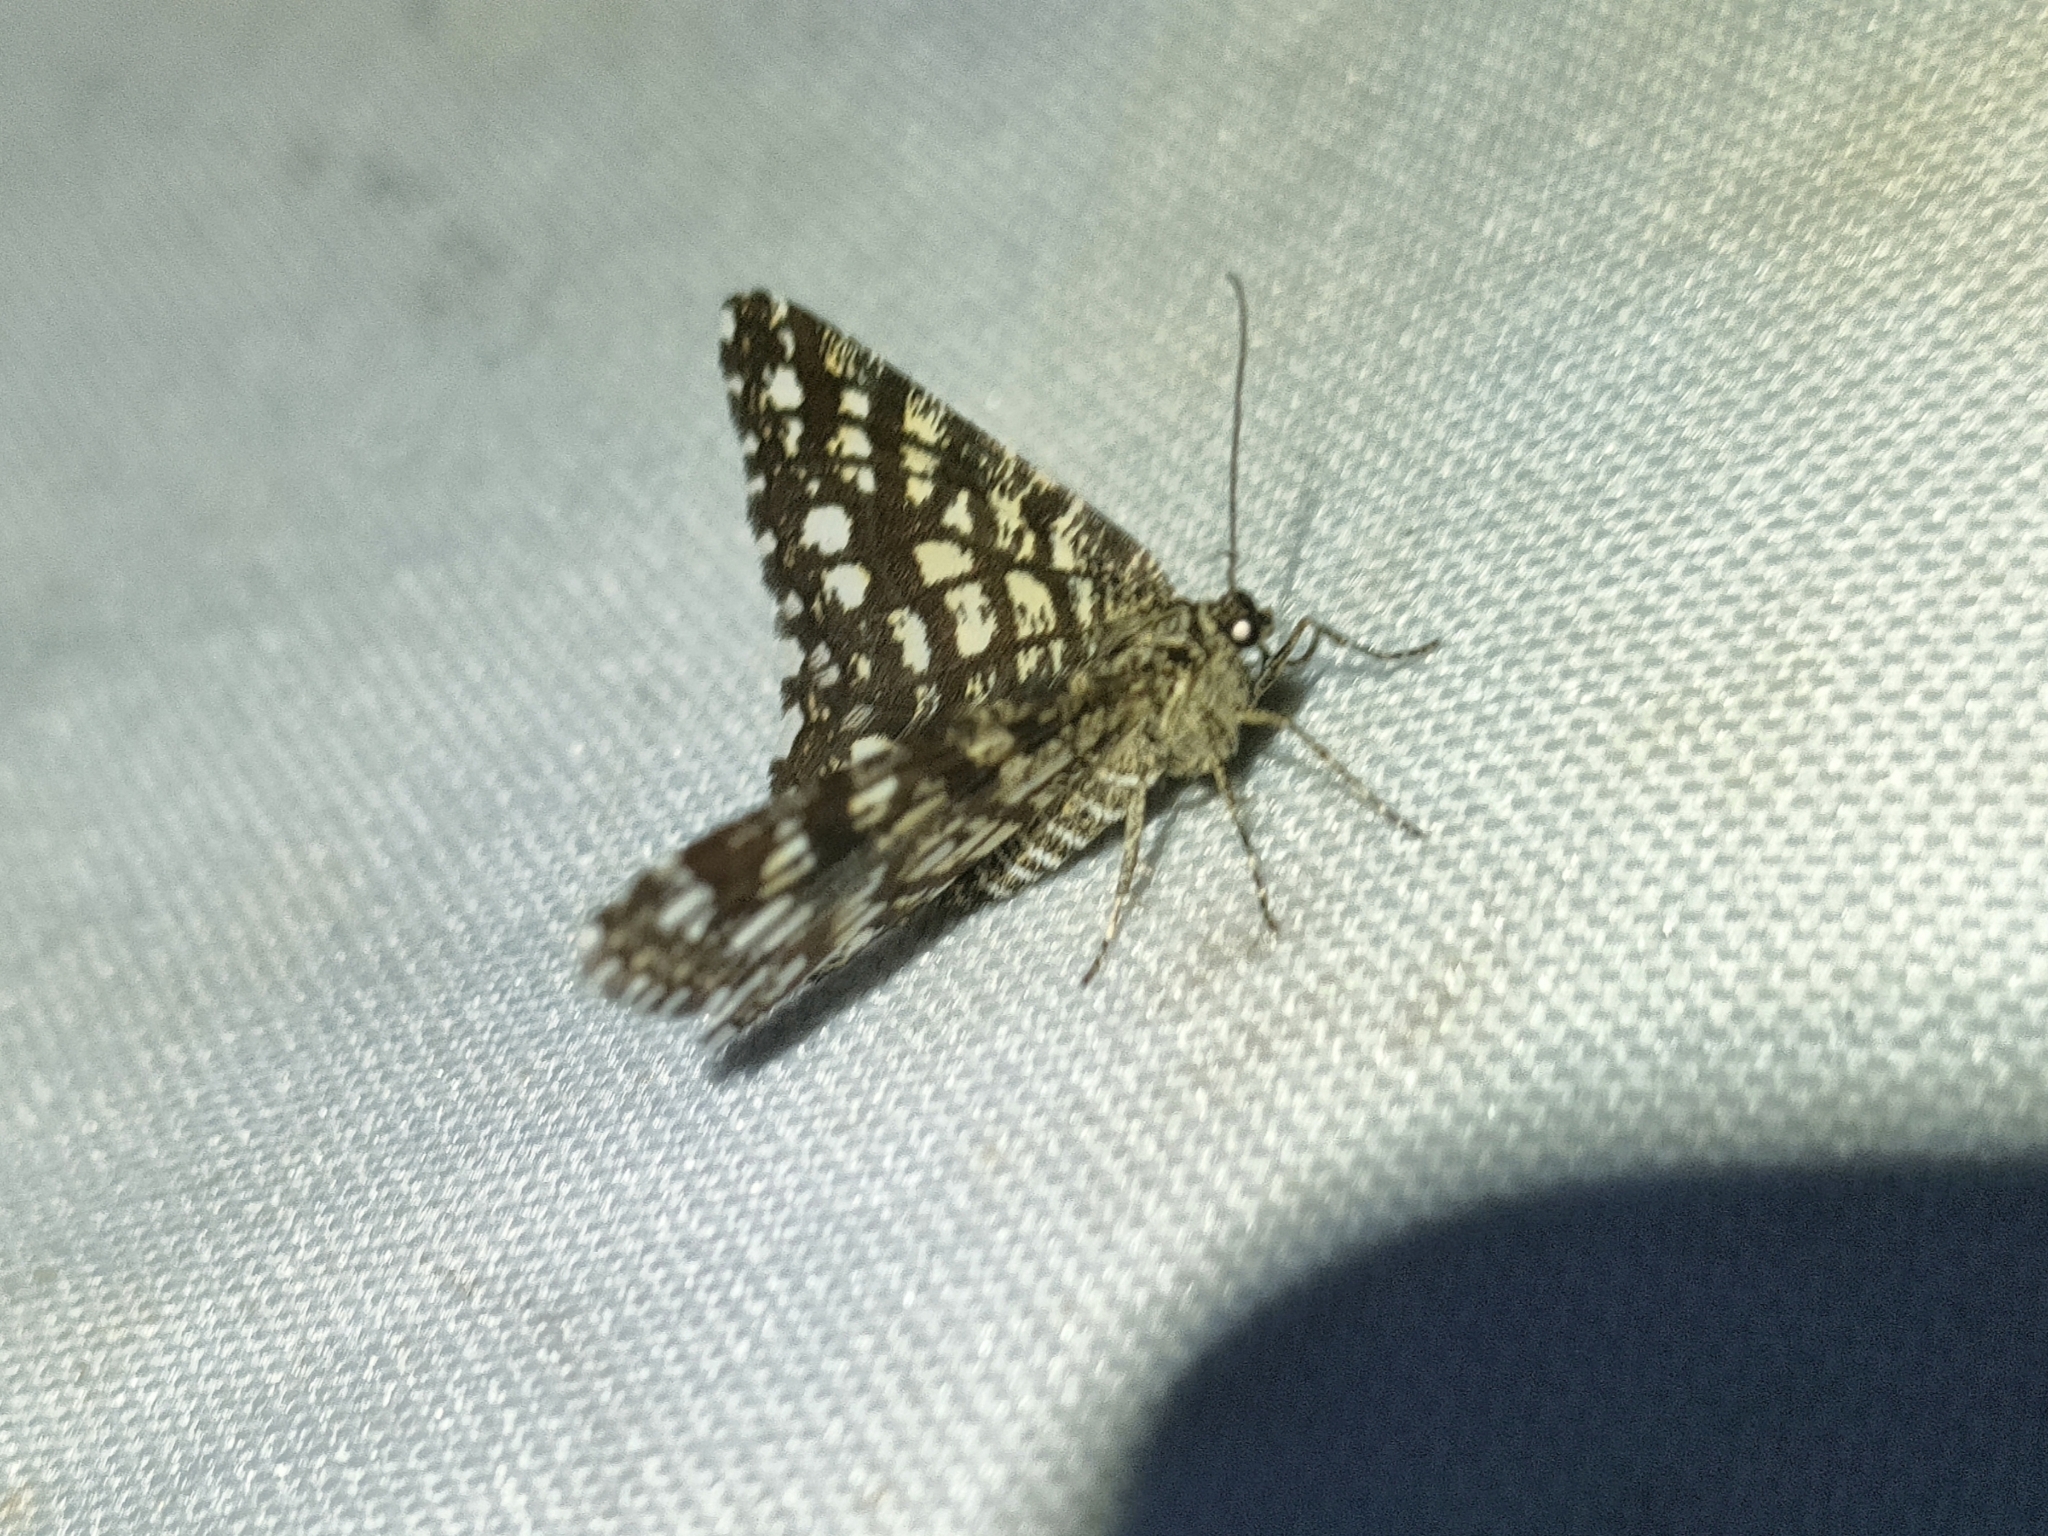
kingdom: Animalia
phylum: Arthropoda
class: Insecta
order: Lepidoptera
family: Geometridae
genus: Chiasmia
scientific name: Chiasmia clathrata
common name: Latticed heath
